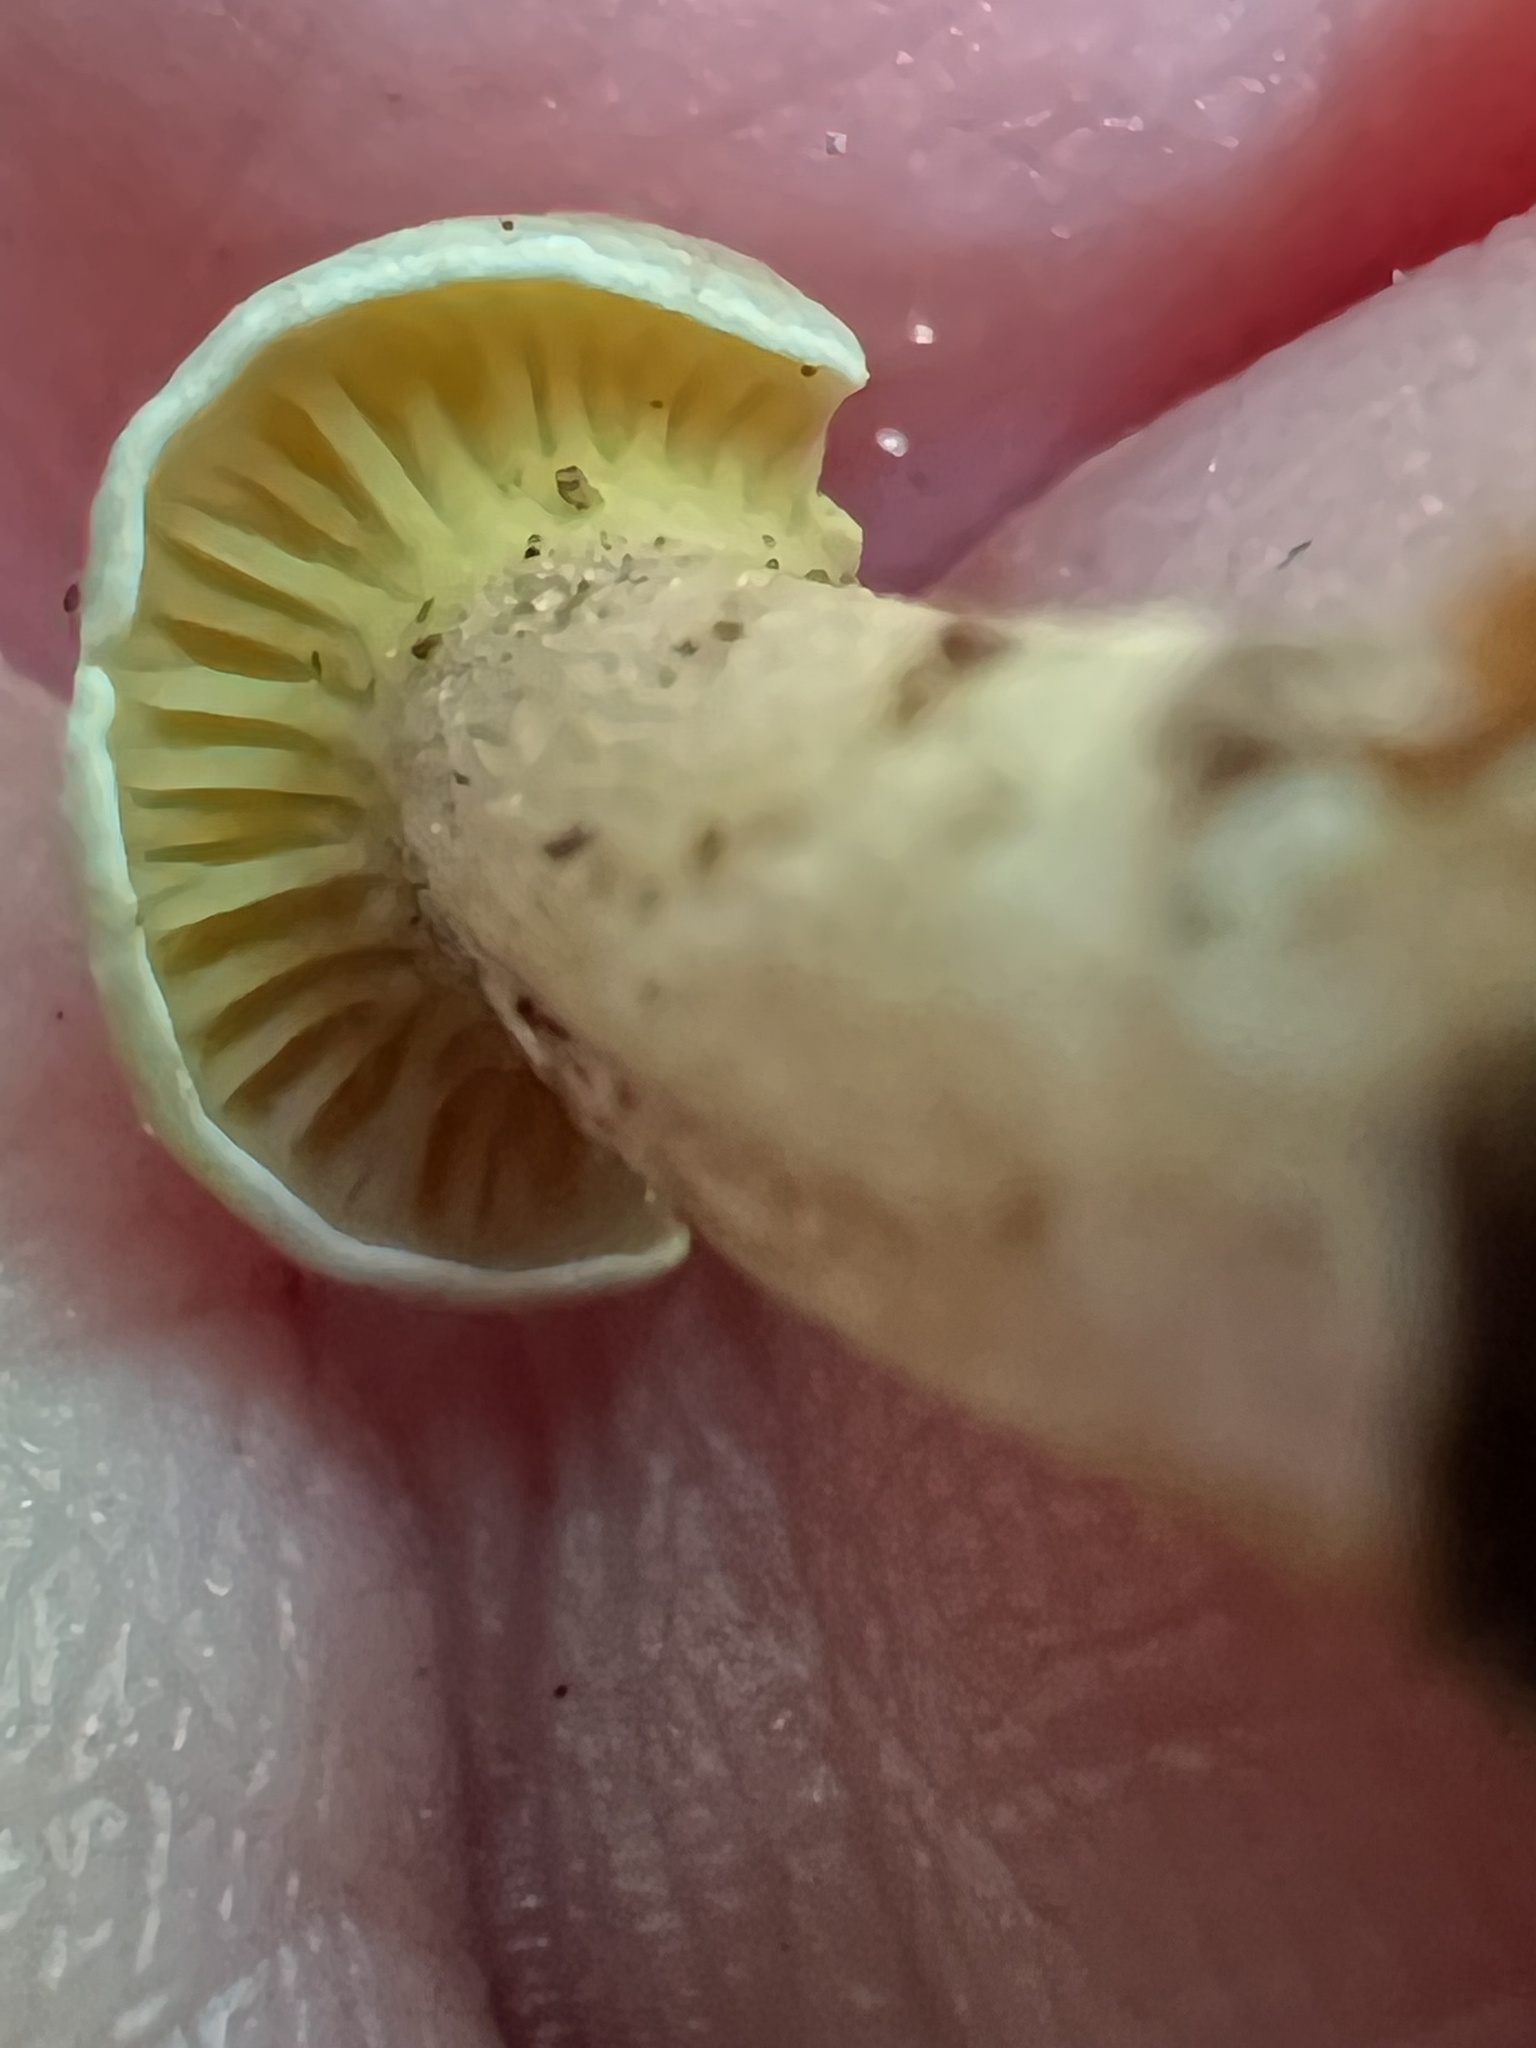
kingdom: Fungi
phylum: Basidiomycota
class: Agaricomycetes
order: Cantharellales
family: Hydnaceae
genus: Cantharellus
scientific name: Cantharellus appalachiensis
